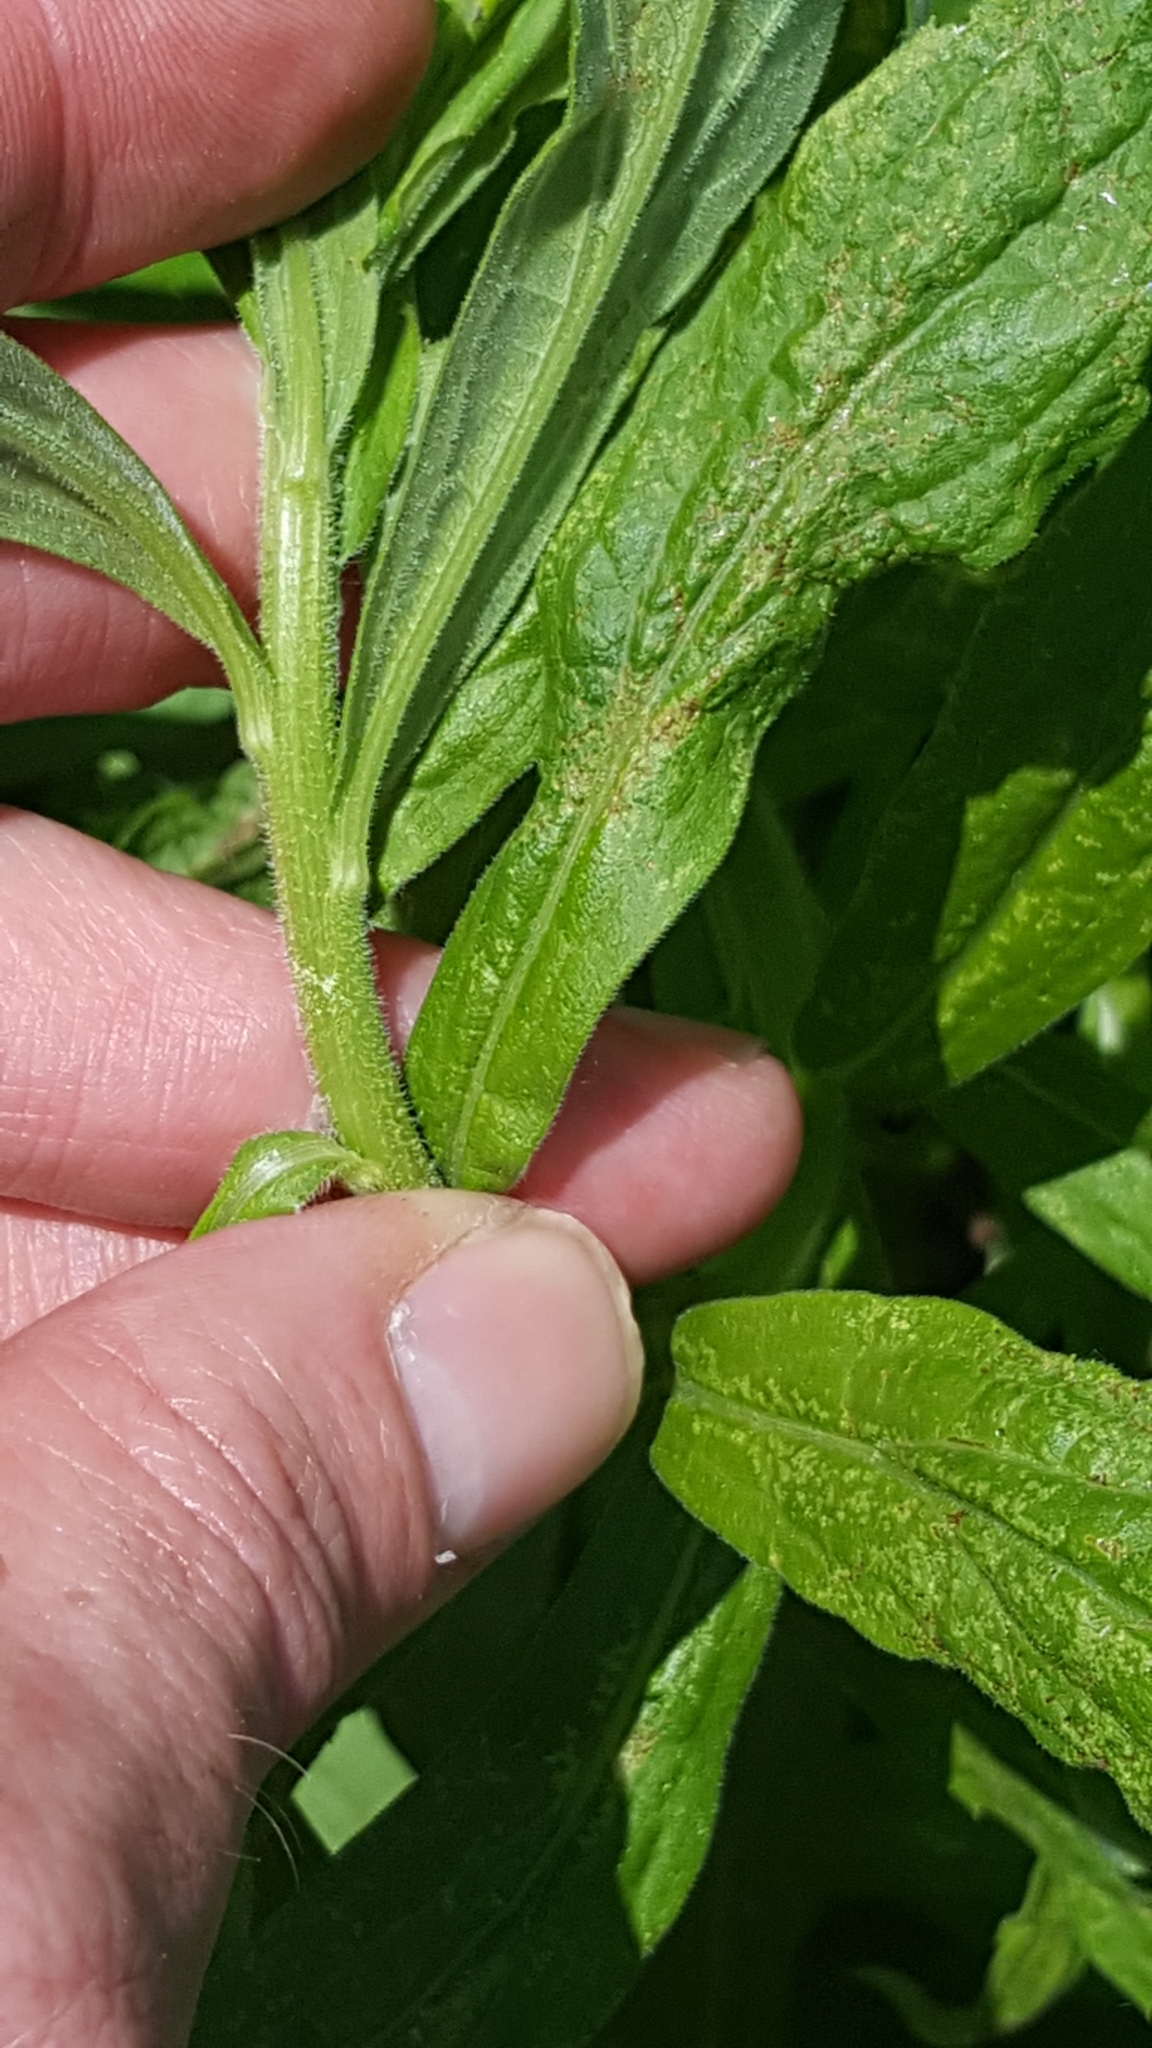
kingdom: Plantae
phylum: Tracheophyta
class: Magnoliopsida
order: Asterales
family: Asteraceae
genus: Solidago
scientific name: Solidago altissima
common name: Late goldenrod
